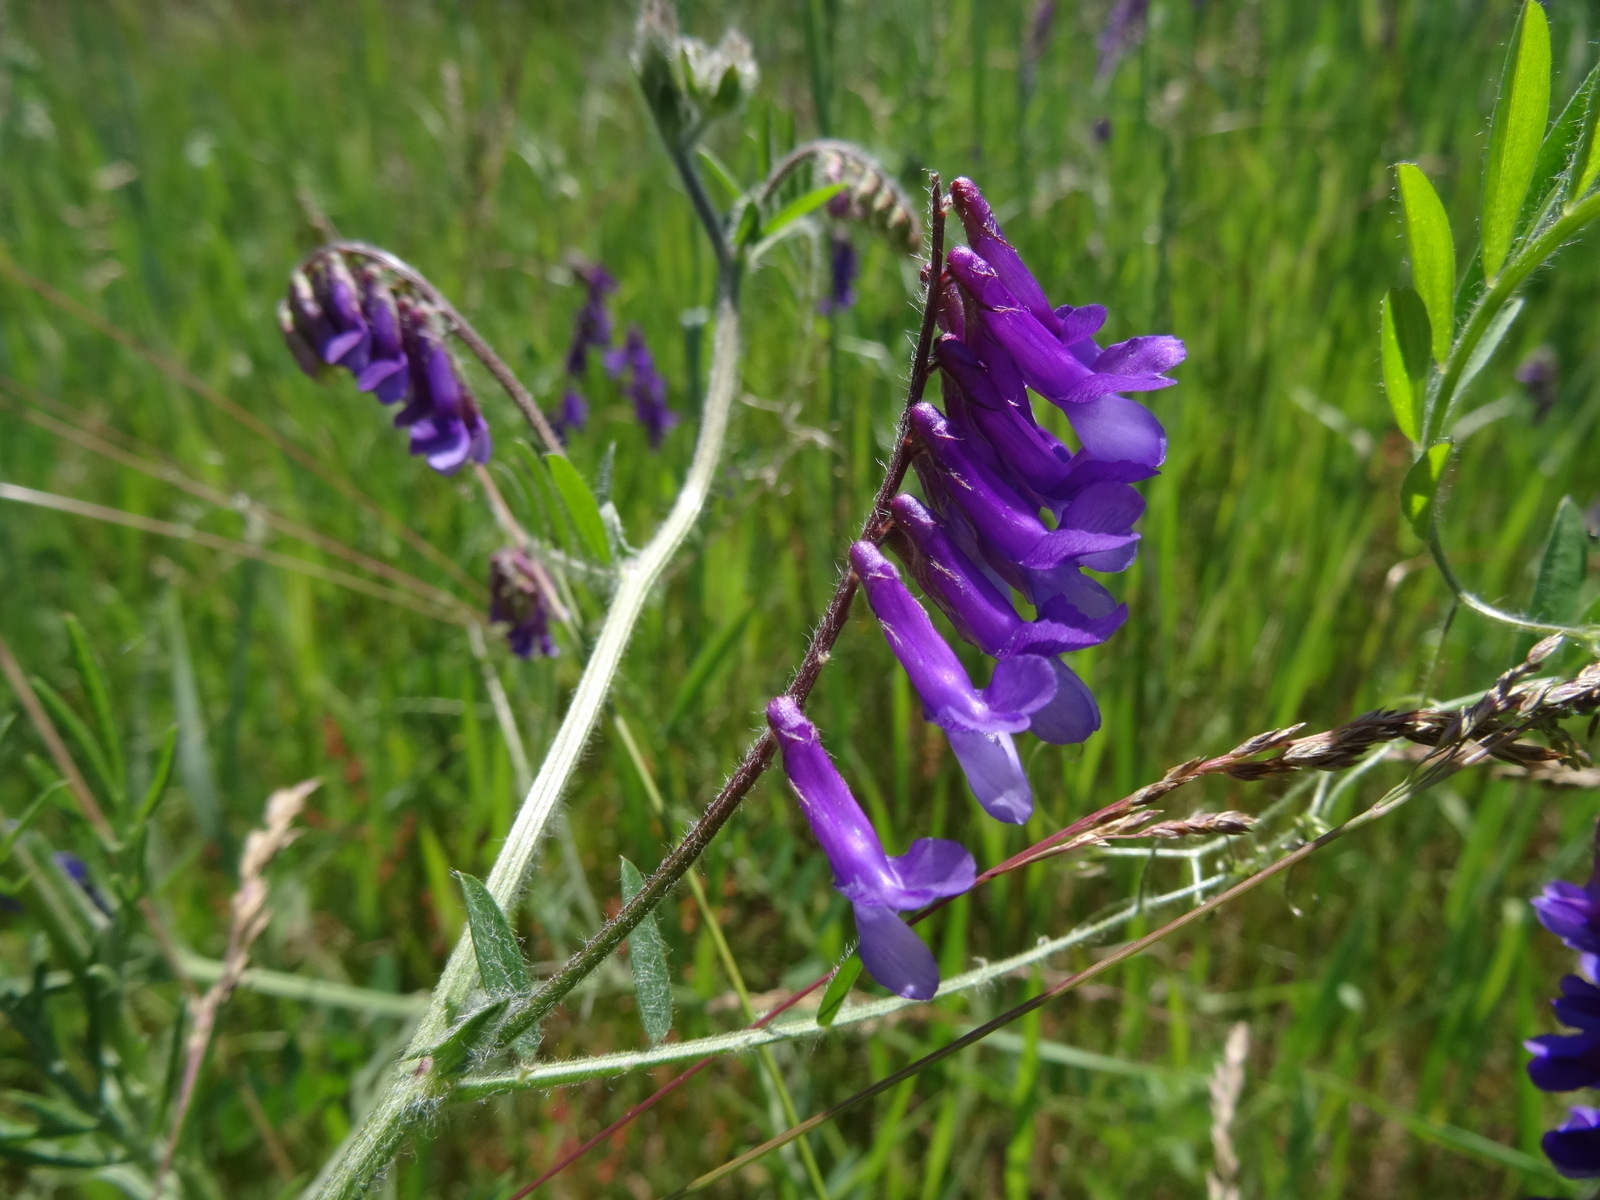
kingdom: Plantae
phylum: Tracheophyta
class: Magnoliopsida
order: Fabales
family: Fabaceae
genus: Vicia
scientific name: Vicia villosa
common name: Fodder vetch
